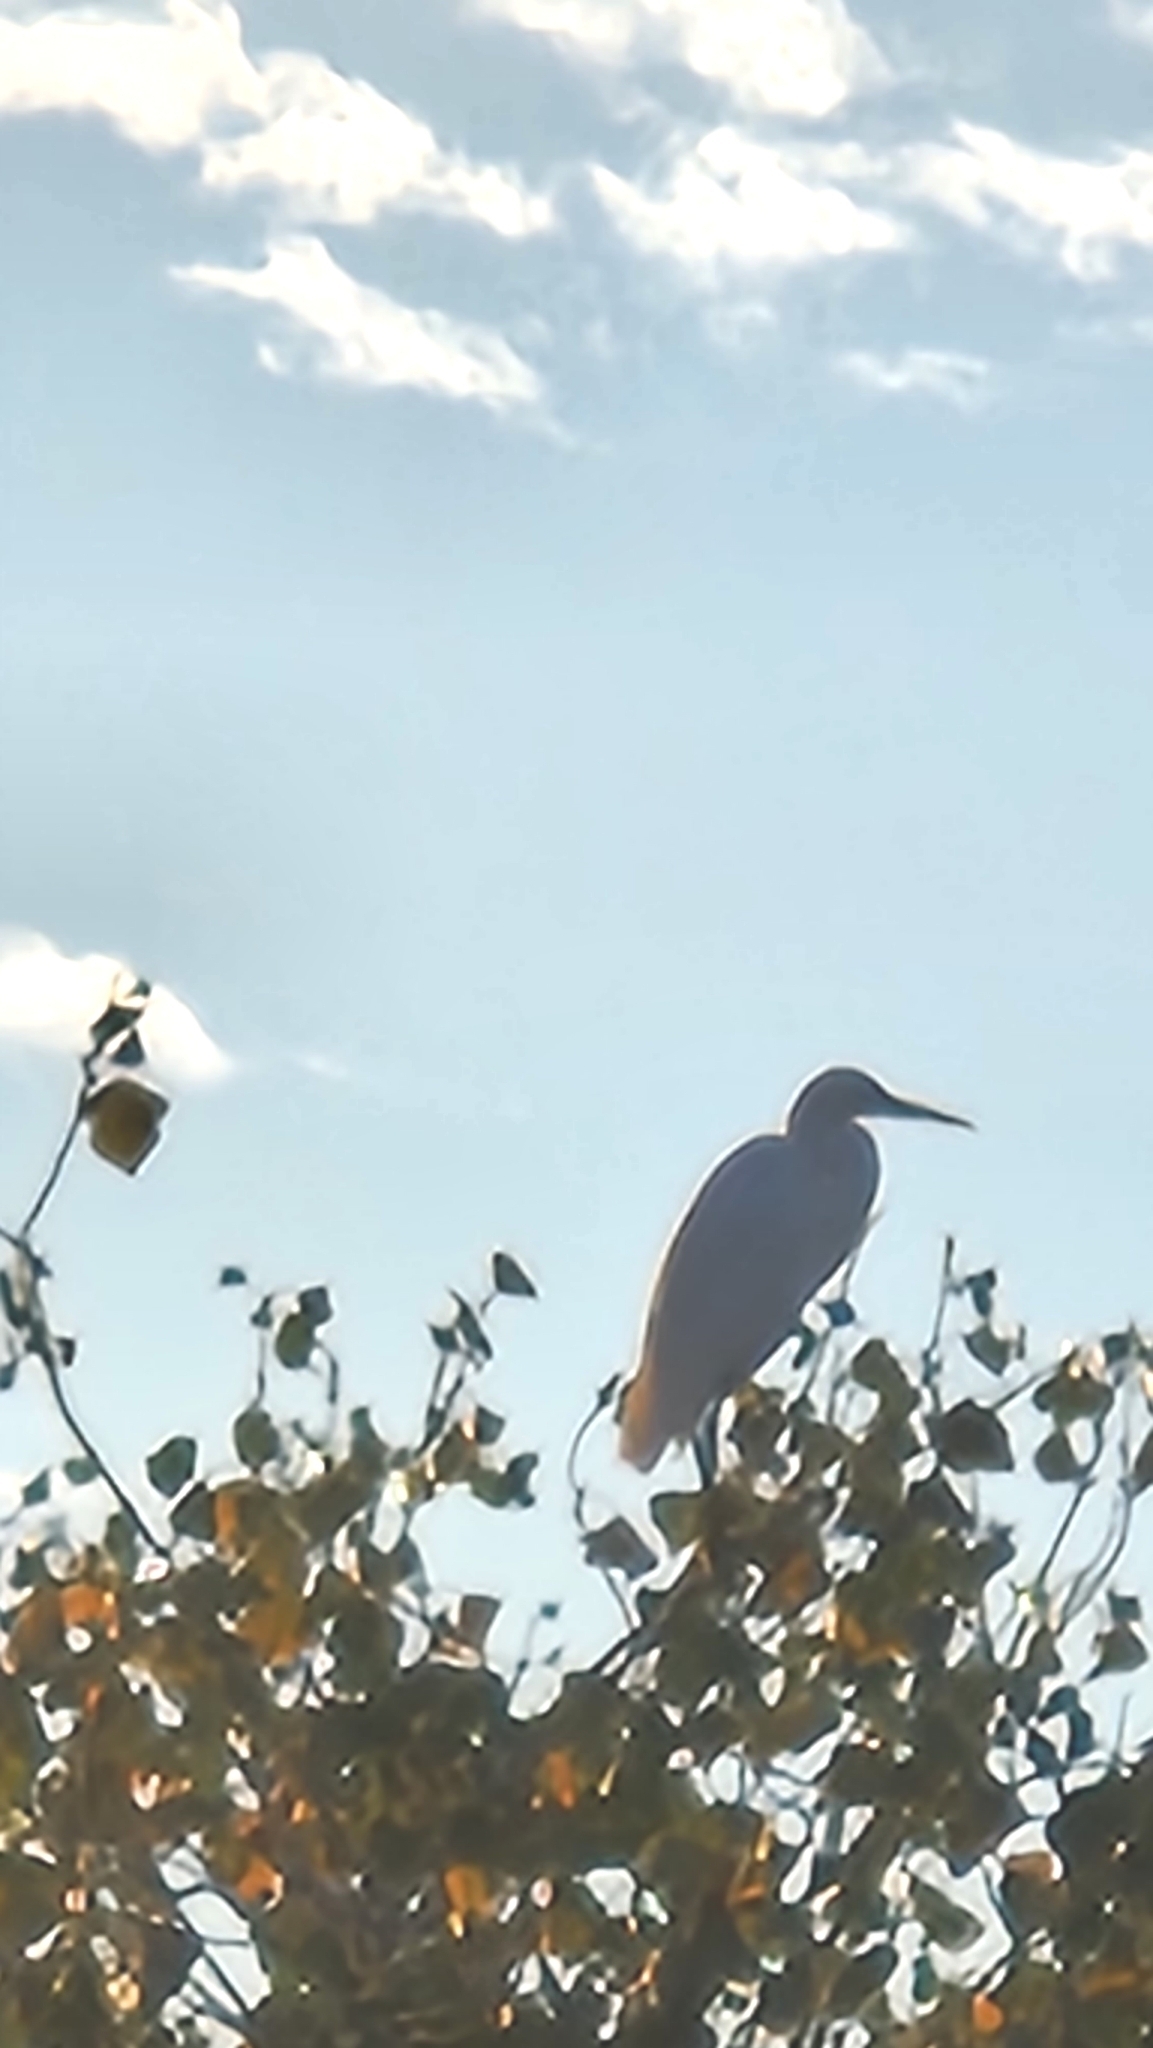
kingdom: Animalia
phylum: Chordata
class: Aves
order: Pelecaniformes
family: Ardeidae
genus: Ardea
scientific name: Ardea alba
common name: Great egret
